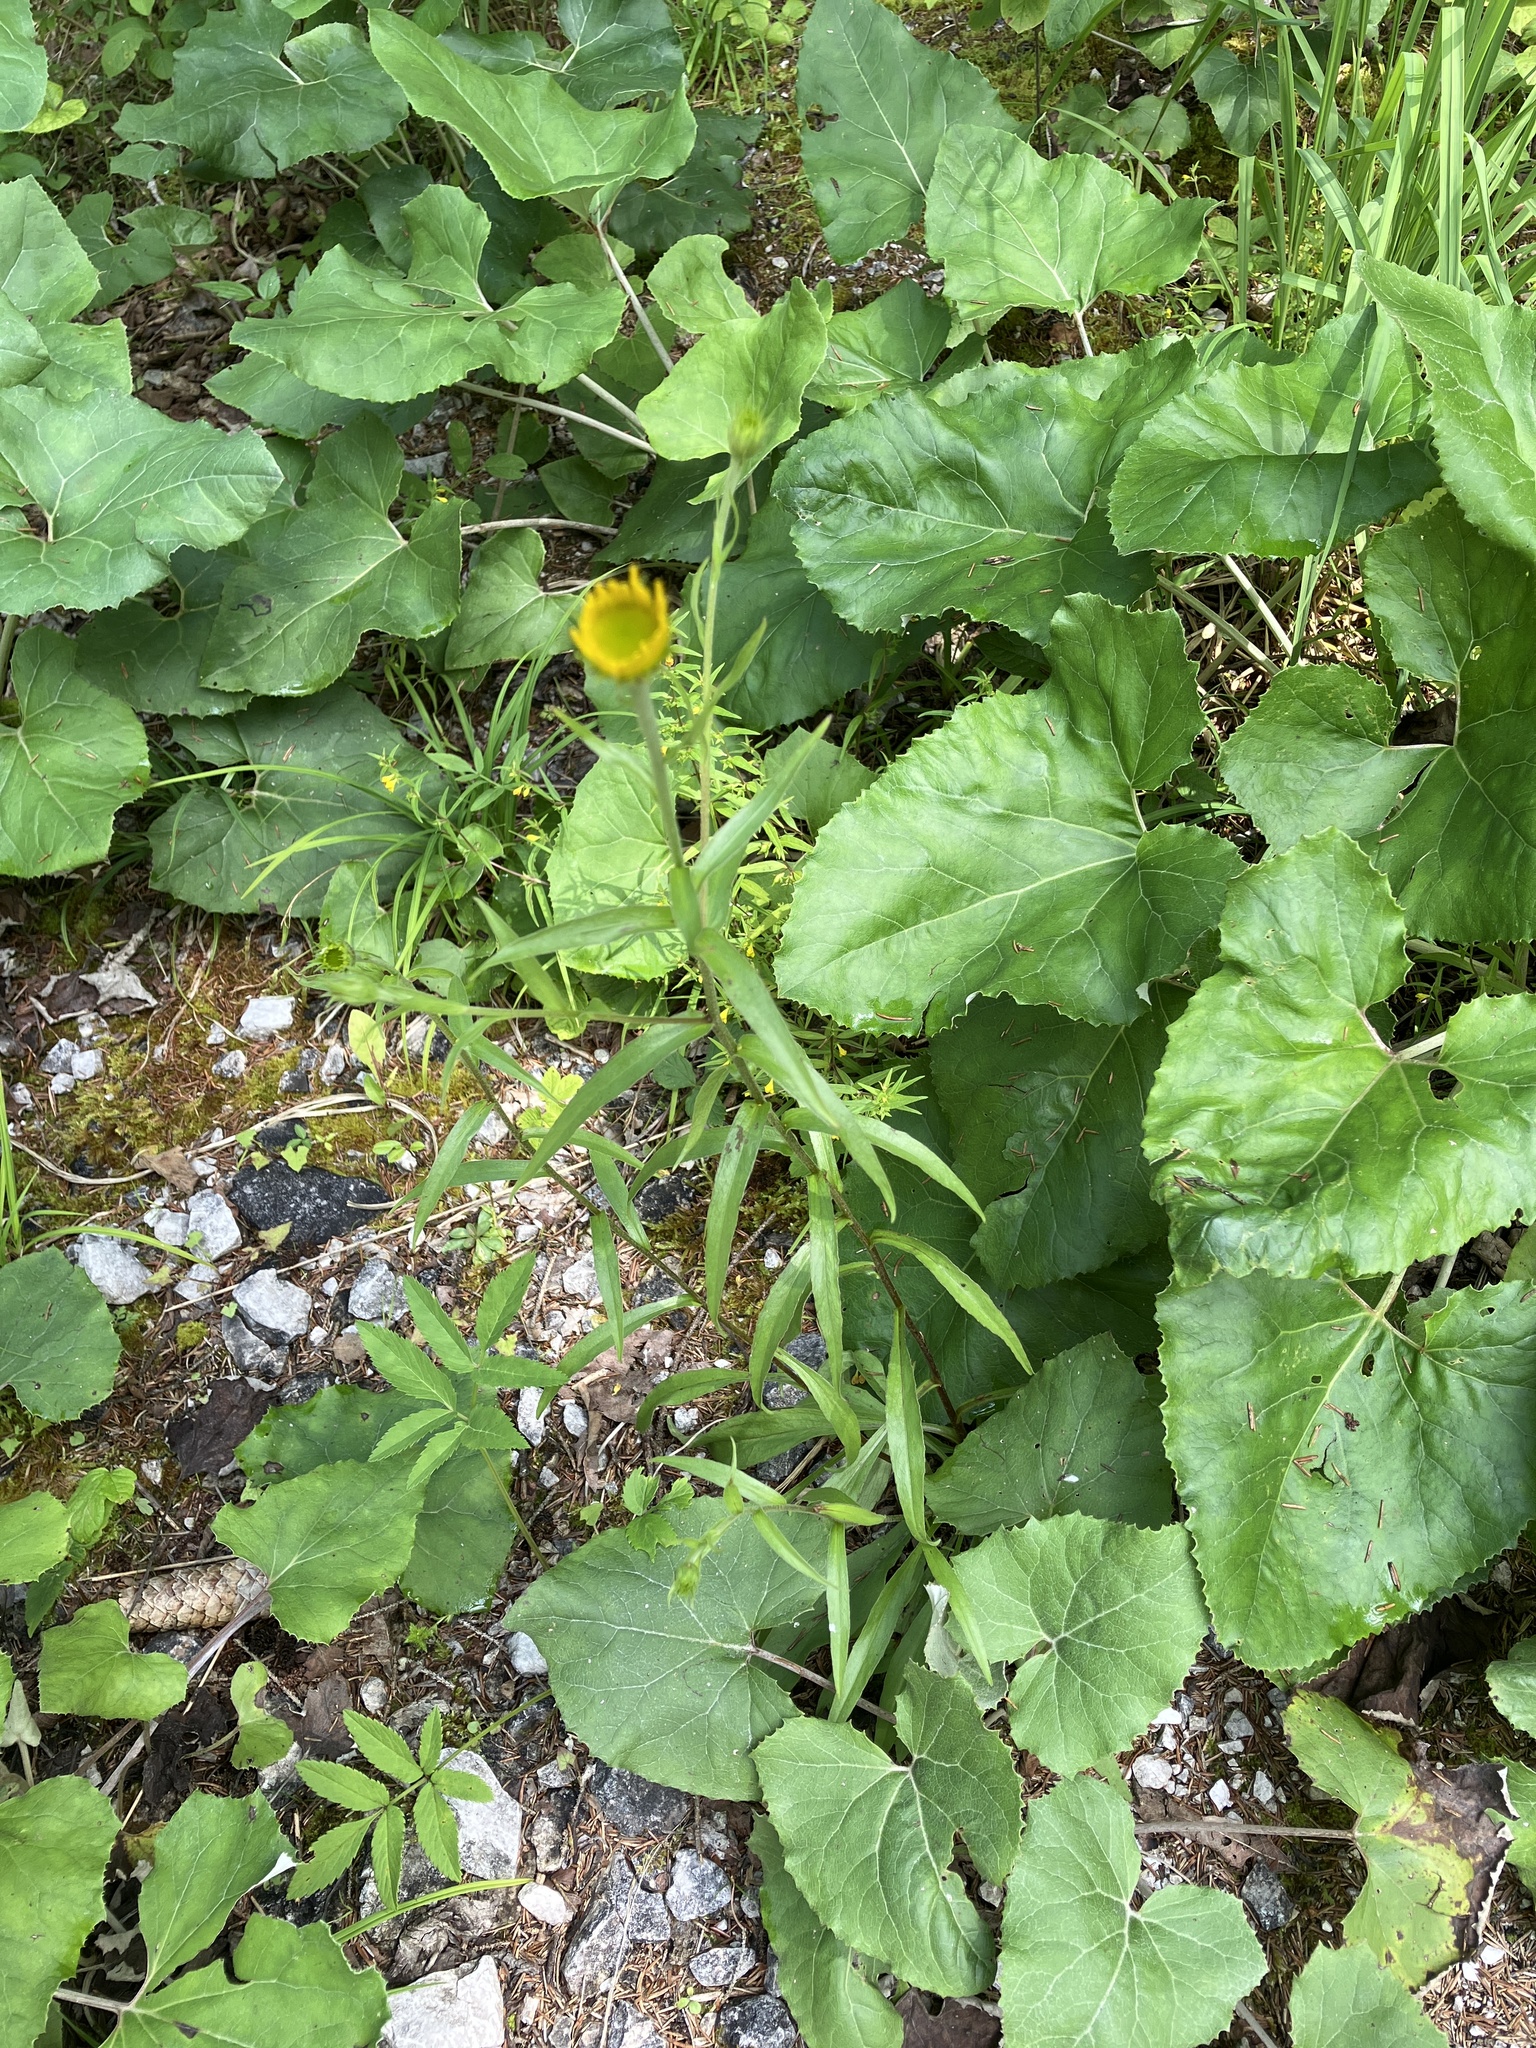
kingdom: Plantae
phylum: Tracheophyta
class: Magnoliopsida
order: Asterales
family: Asteraceae
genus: Buphthalmum
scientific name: Buphthalmum salicifolium
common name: Willow-leaved yellow-oxeye
